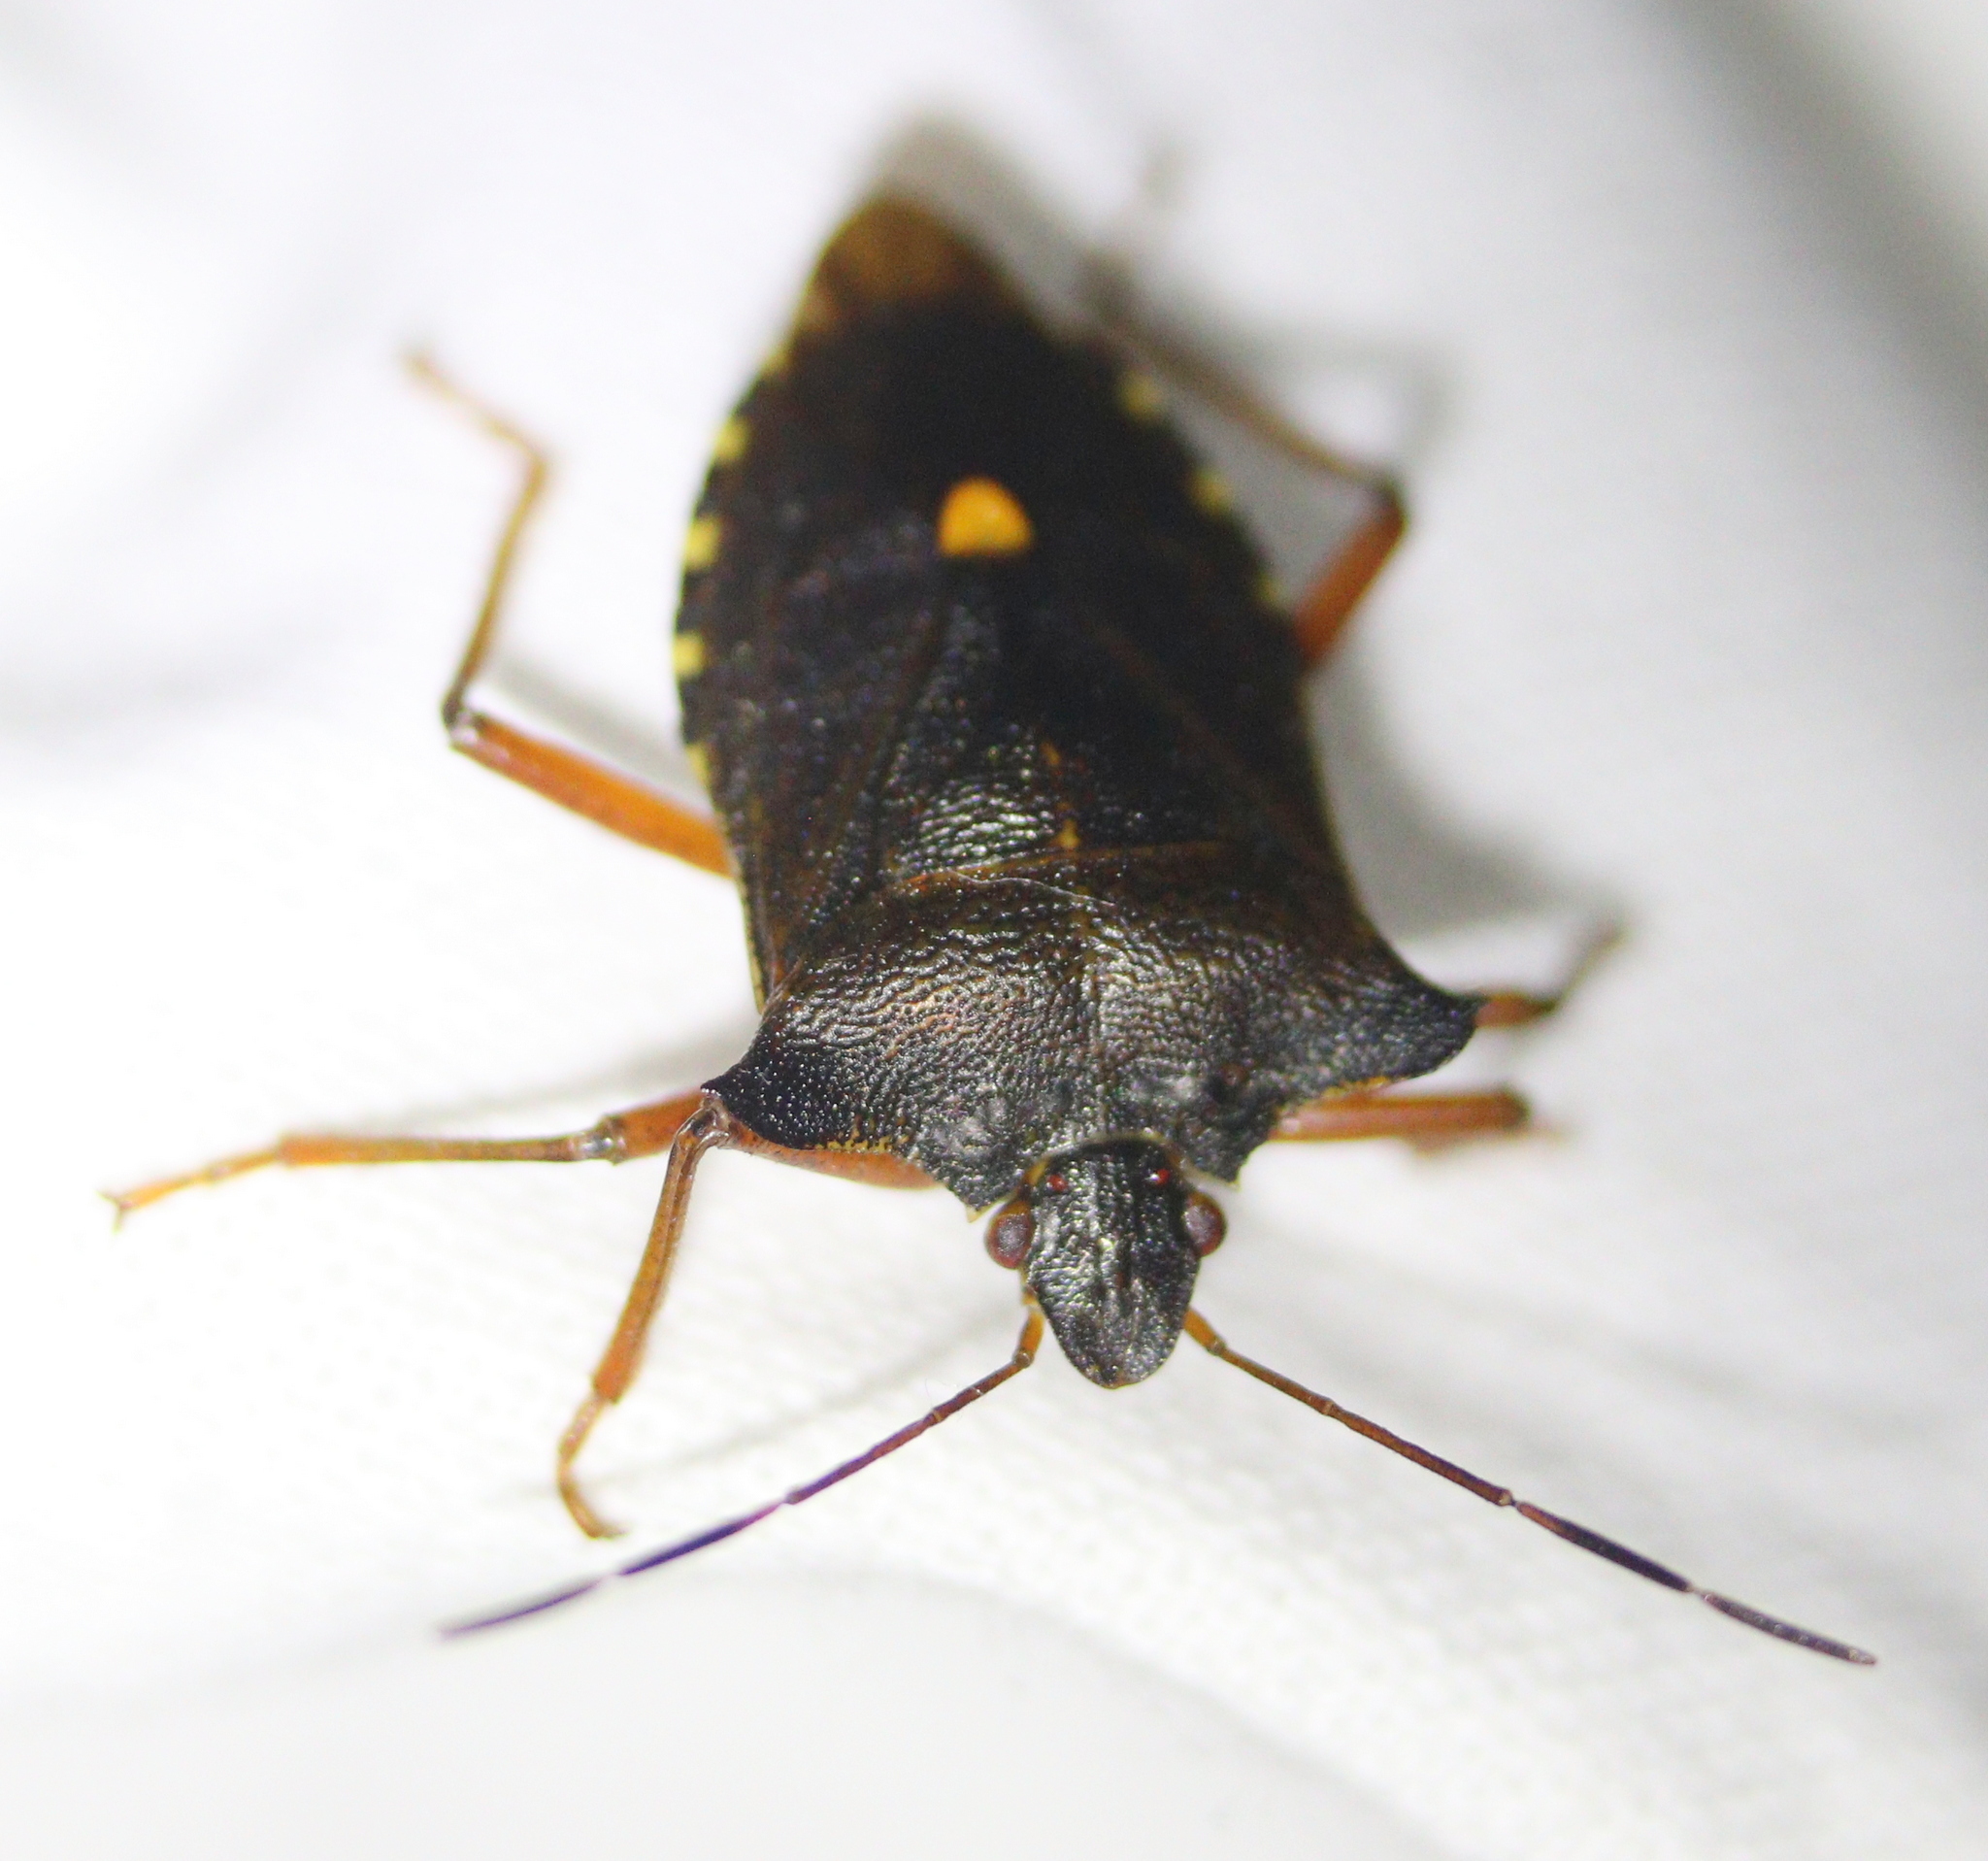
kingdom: Animalia
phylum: Arthropoda
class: Insecta
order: Hemiptera
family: Pentatomidae
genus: Pentatoma
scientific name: Pentatoma rufipes
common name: Forest bug
